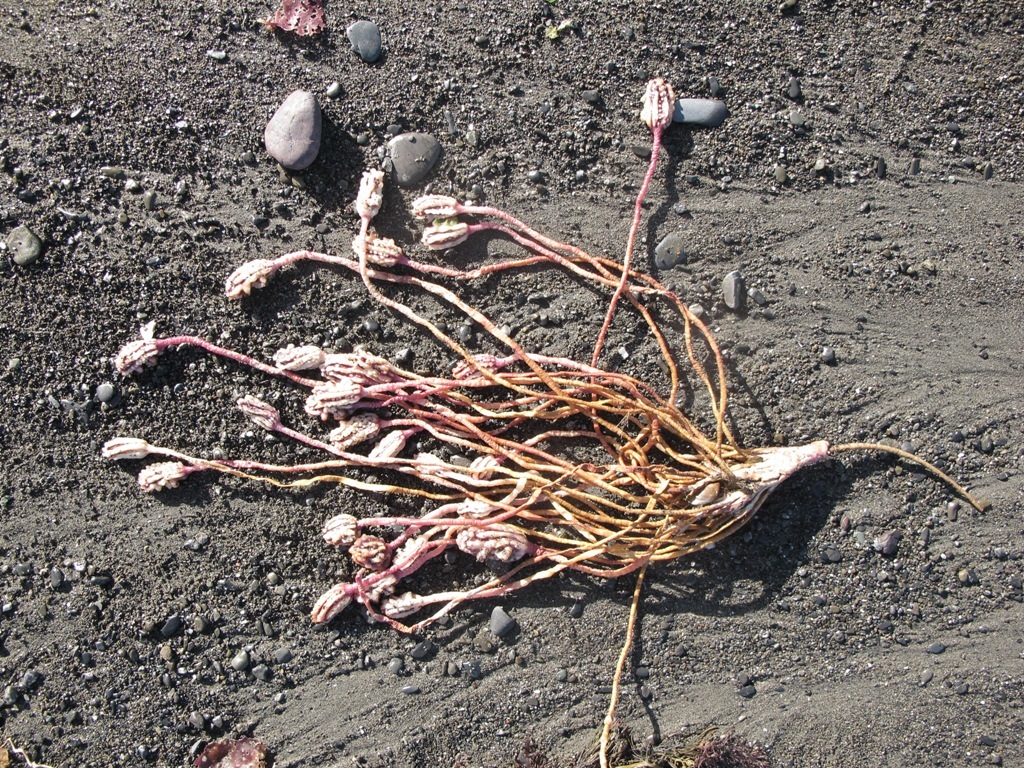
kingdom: Animalia
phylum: Chordata
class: Ascidiacea
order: Stolidobranchia
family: Pyuridae
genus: Pyura
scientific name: Pyura pachydermatina
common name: Sea tulip
